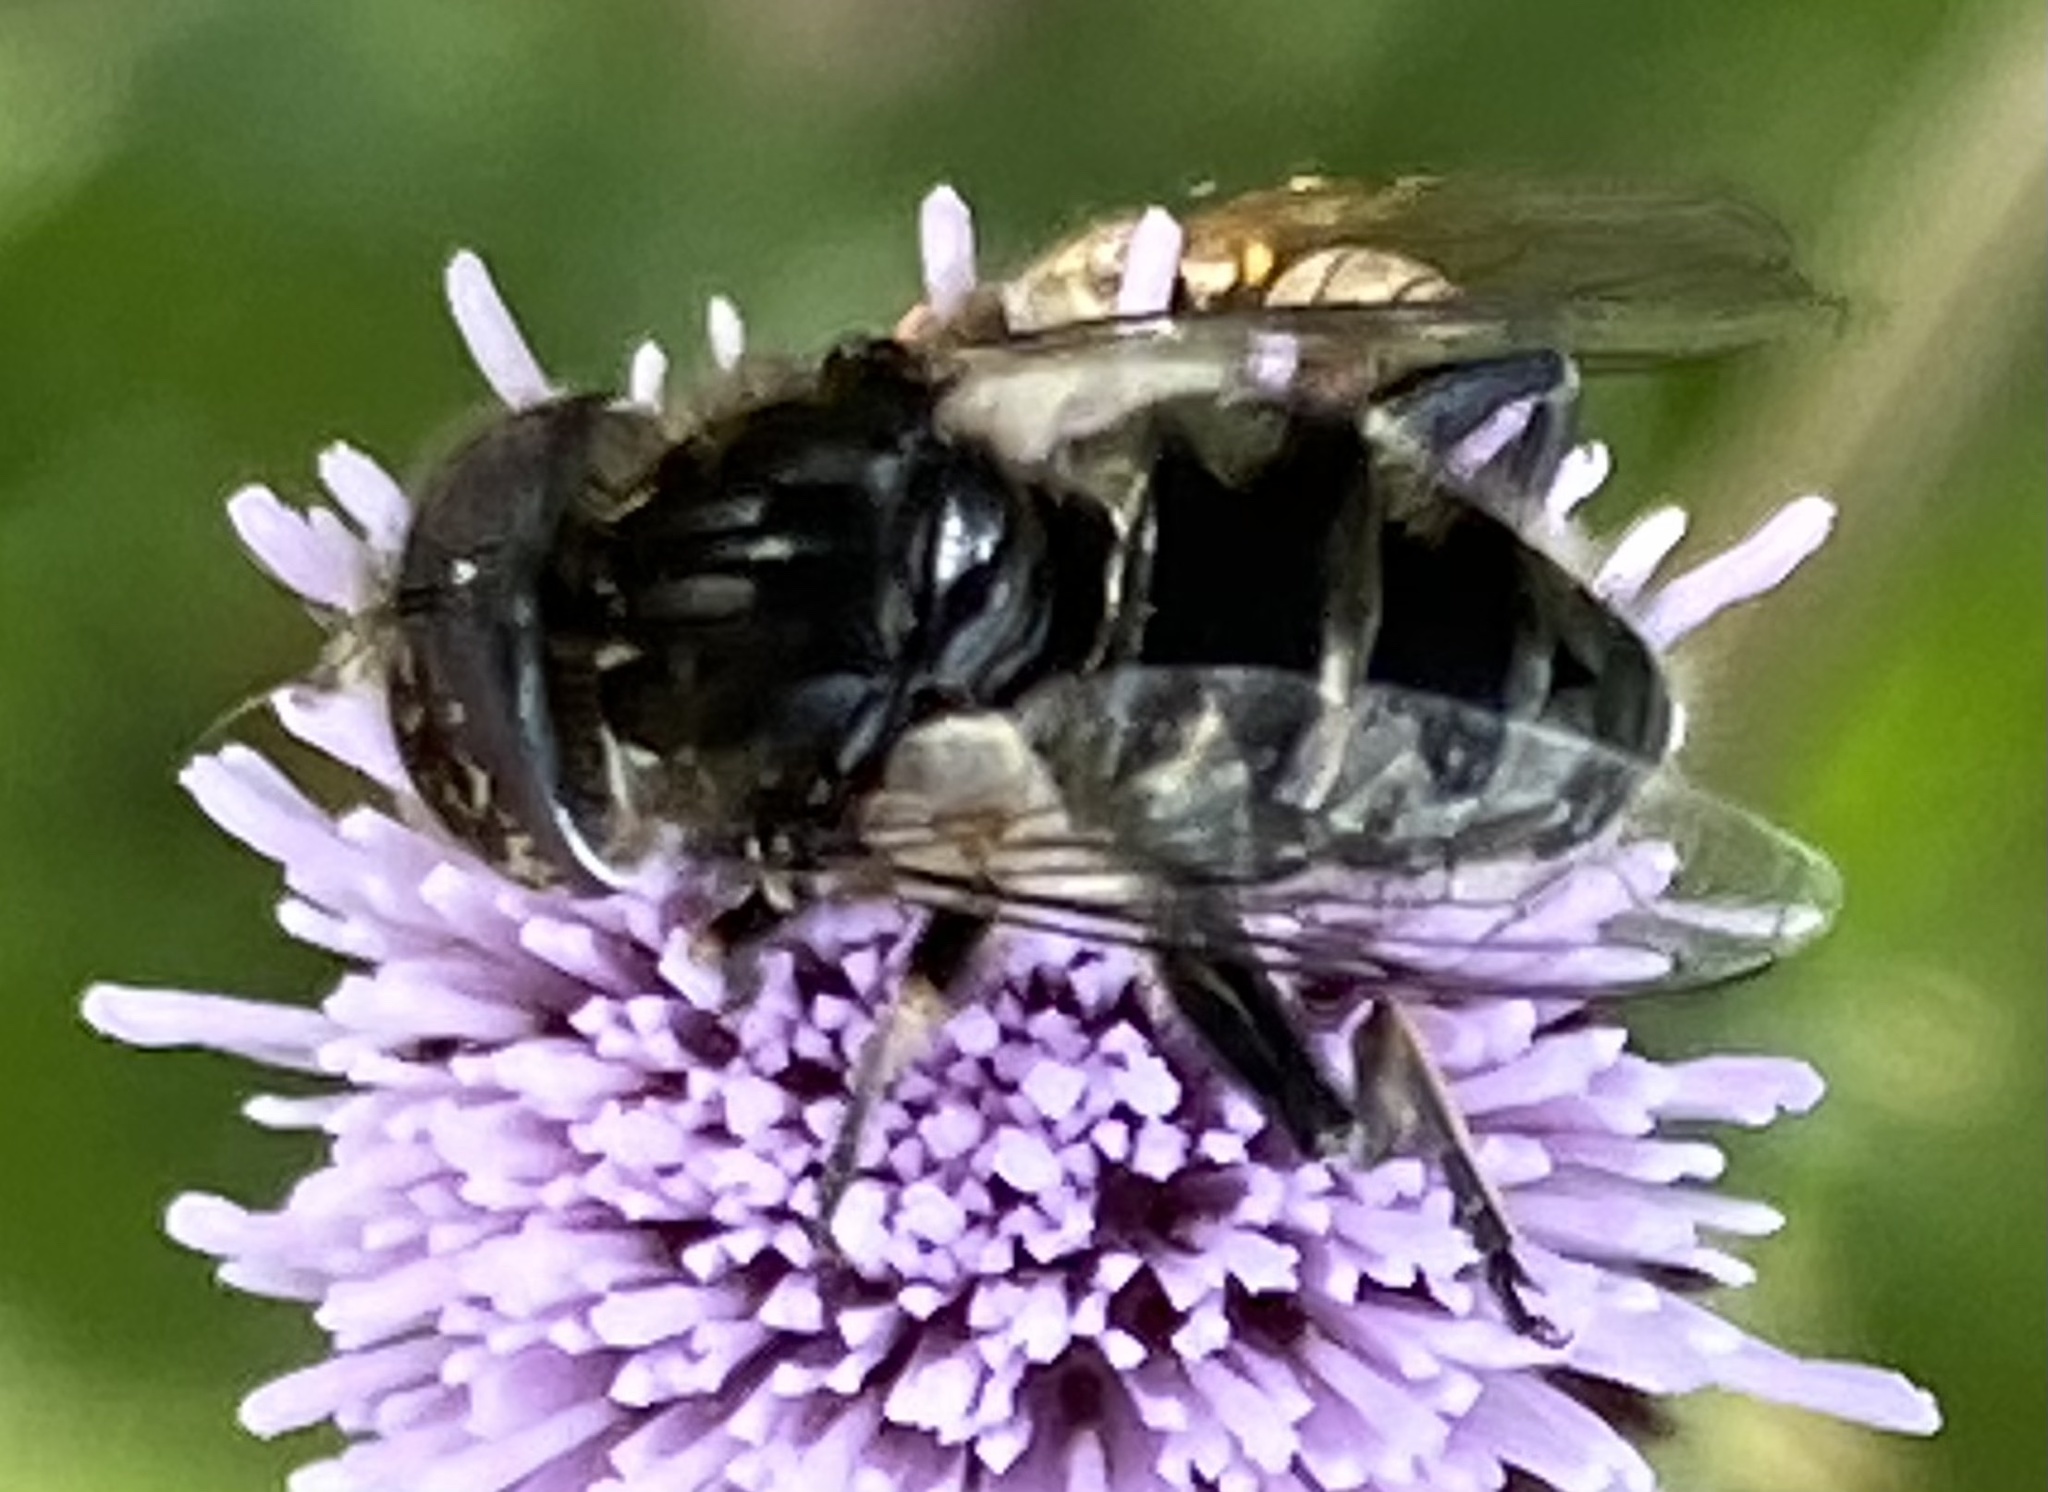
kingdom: Animalia
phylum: Arthropoda
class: Insecta
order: Diptera
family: Syrphidae
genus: Eristalinus
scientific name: Eristalinus sepulchralis
